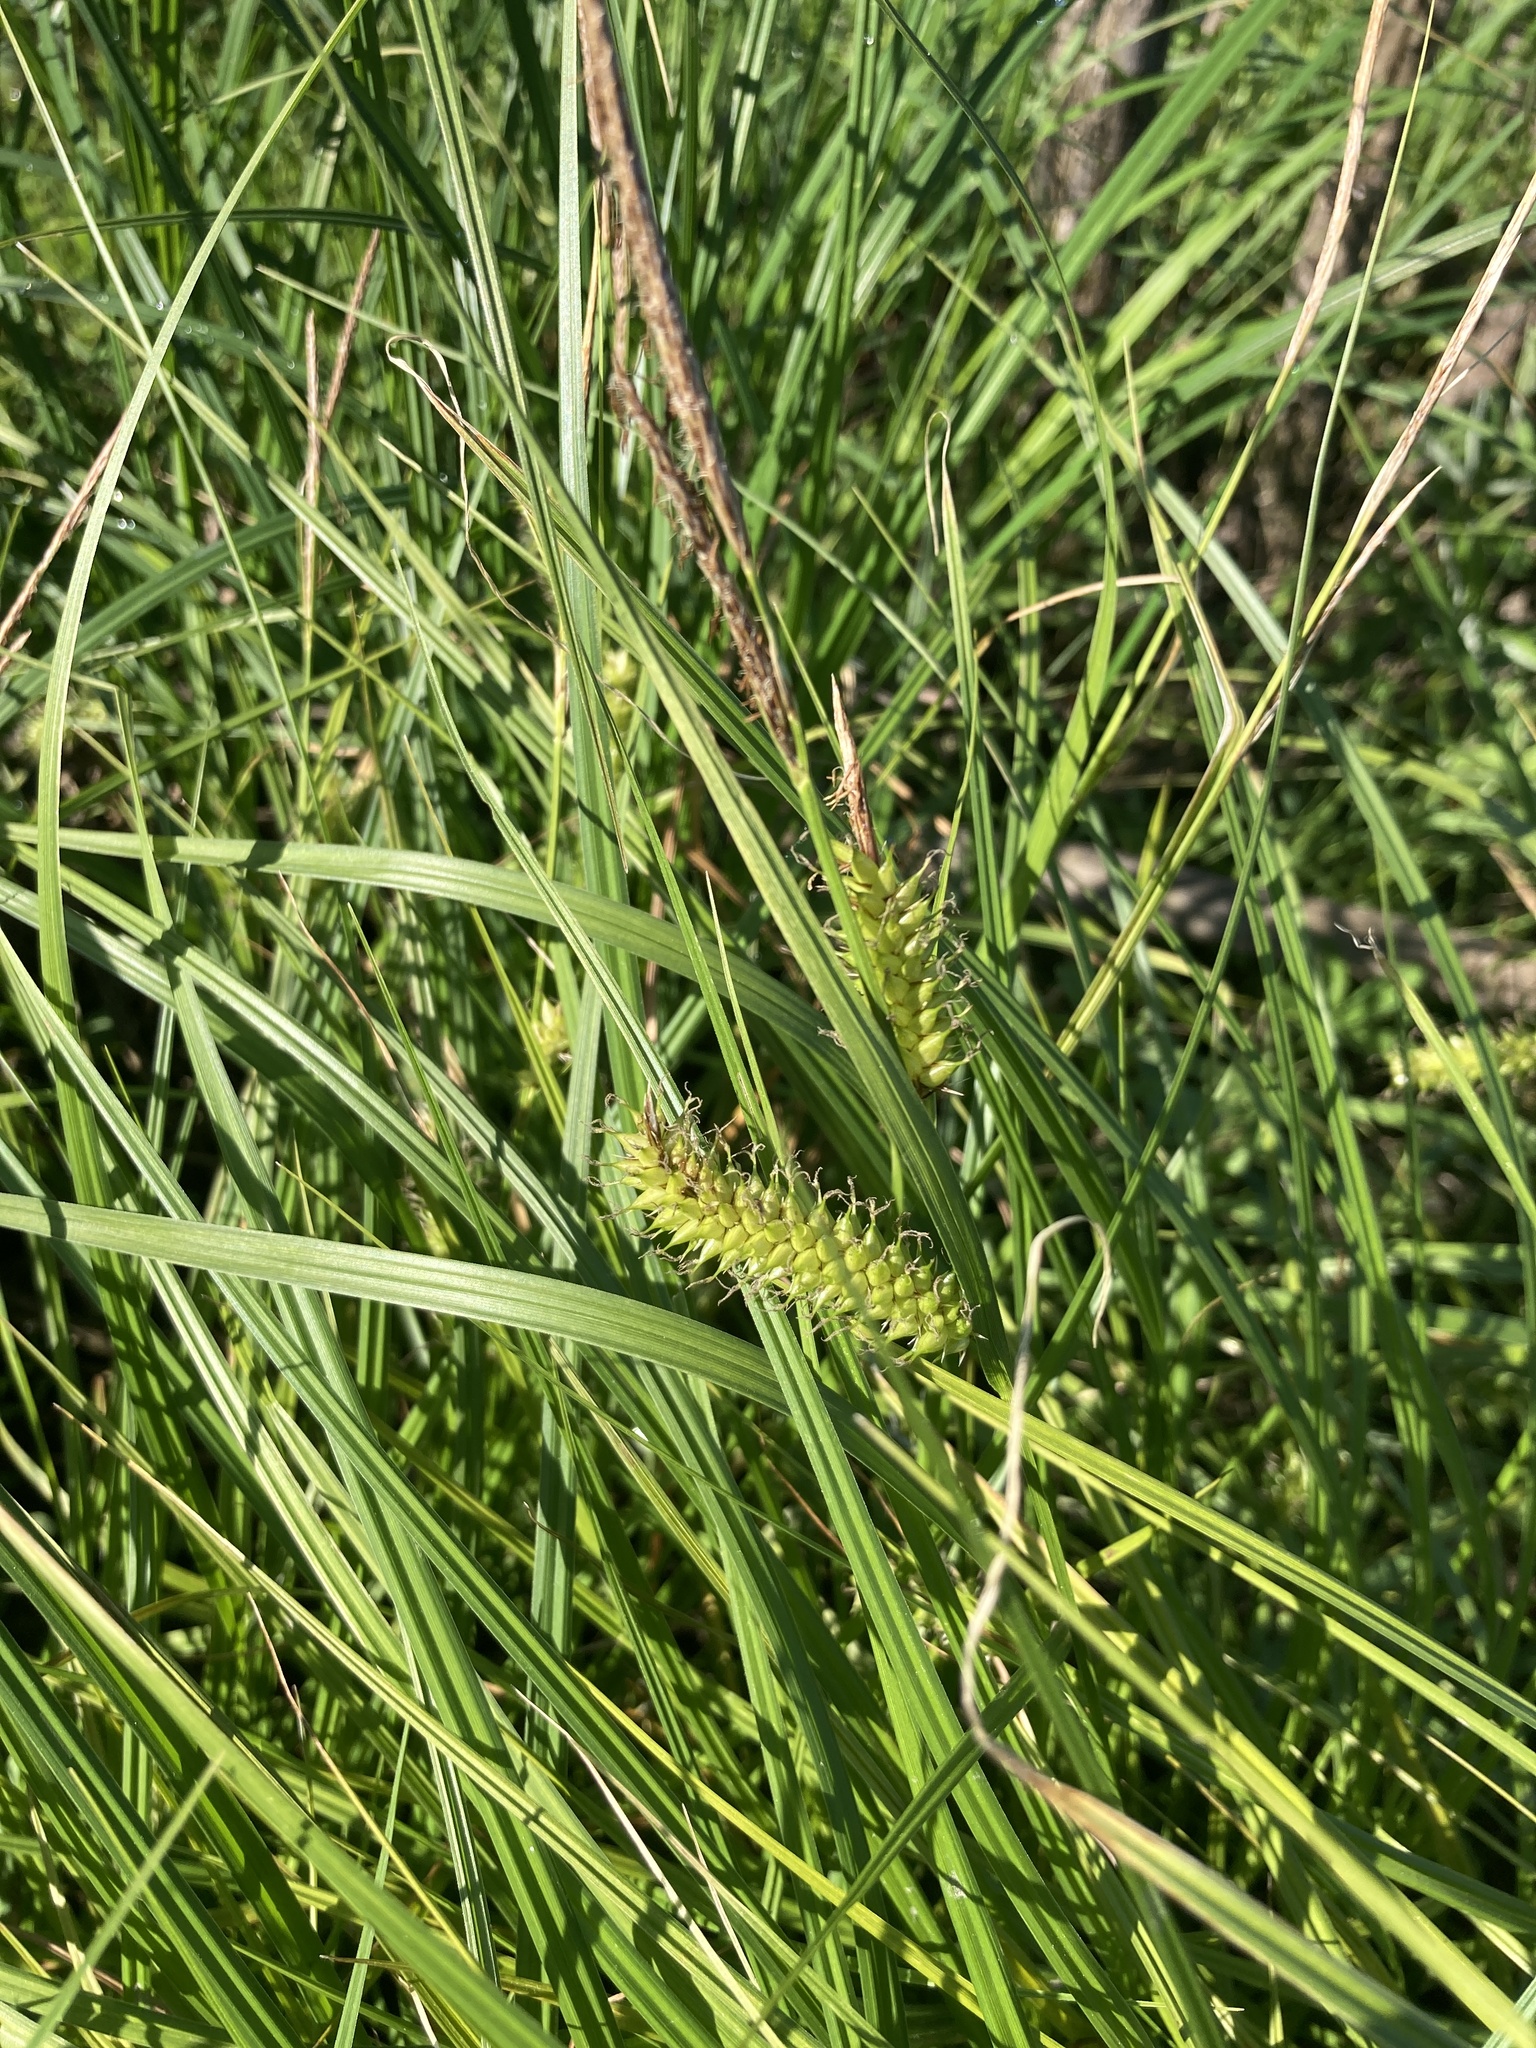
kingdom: Plantae
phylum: Tracheophyta
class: Liliopsida
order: Poales
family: Cyperaceae
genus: Carex
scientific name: Carex vesicaria
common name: Bladder-sedge
